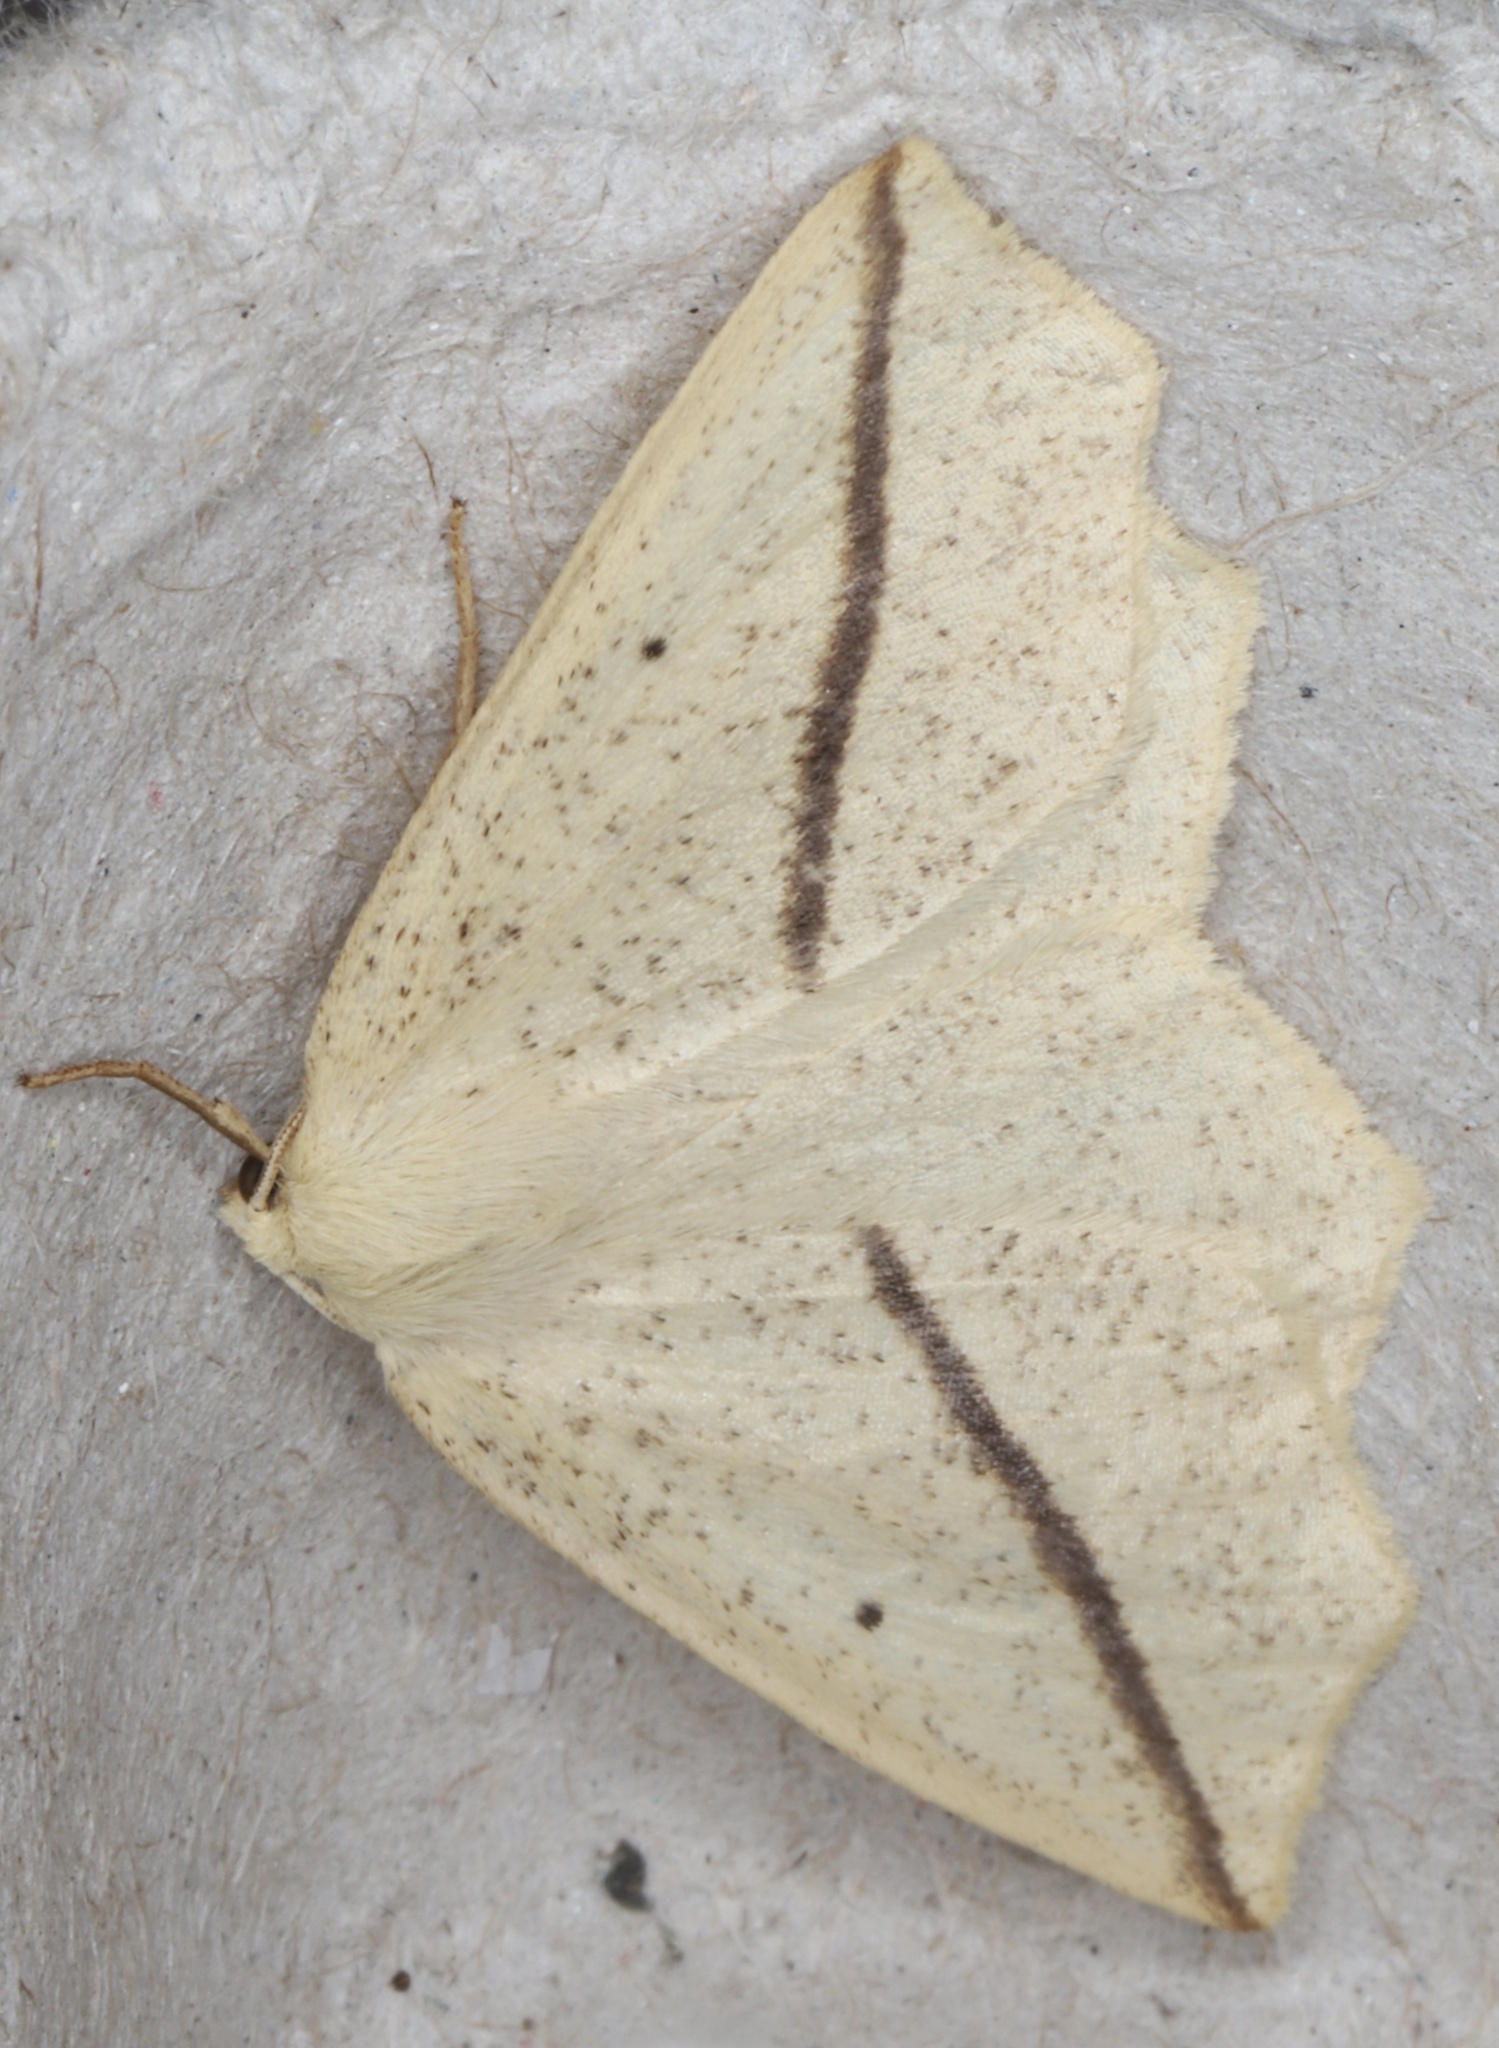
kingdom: Animalia
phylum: Arthropoda
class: Insecta
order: Lepidoptera
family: Geometridae
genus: Tetracis
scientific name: Tetracis crocallata
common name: Yellow slant-line
